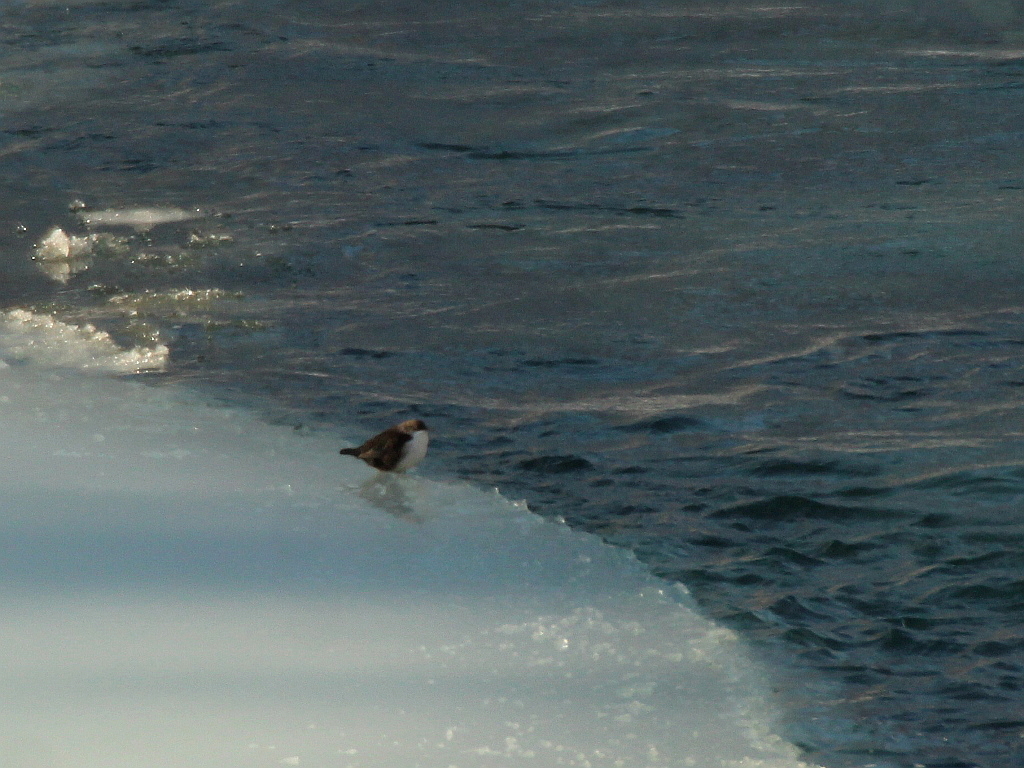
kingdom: Animalia
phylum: Chordata
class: Aves
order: Passeriformes
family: Cinclidae
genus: Cinclus
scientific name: Cinclus cinclus
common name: White-throated dipper
